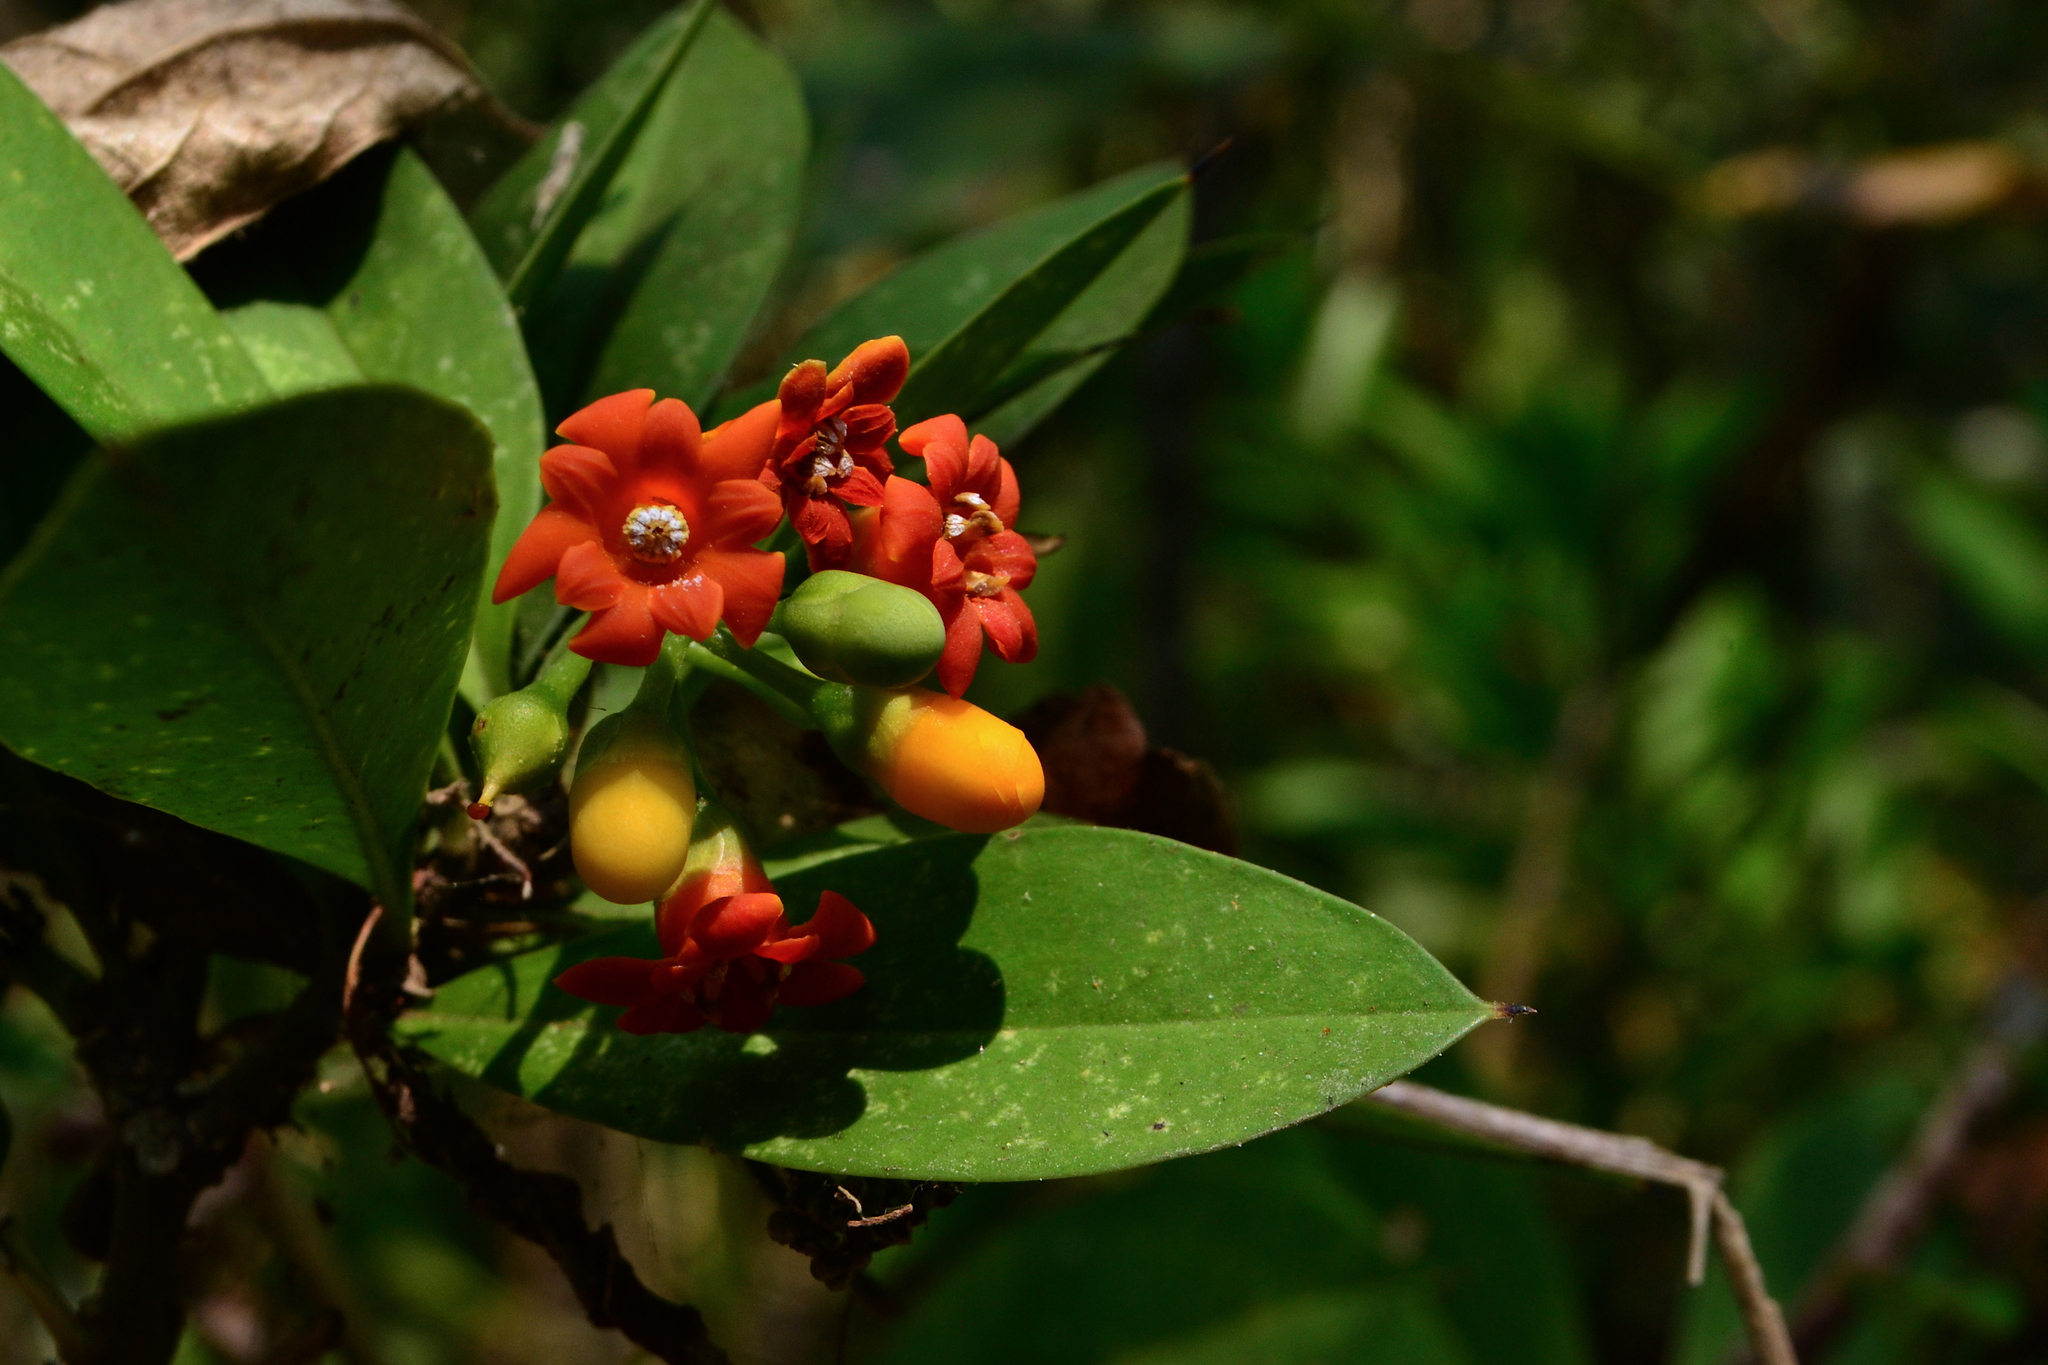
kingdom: Plantae
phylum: Tracheophyta
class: Magnoliopsida
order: Ericales
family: Primulaceae
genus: Bonellia
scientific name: Bonellia macrocarpa
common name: Primrose
